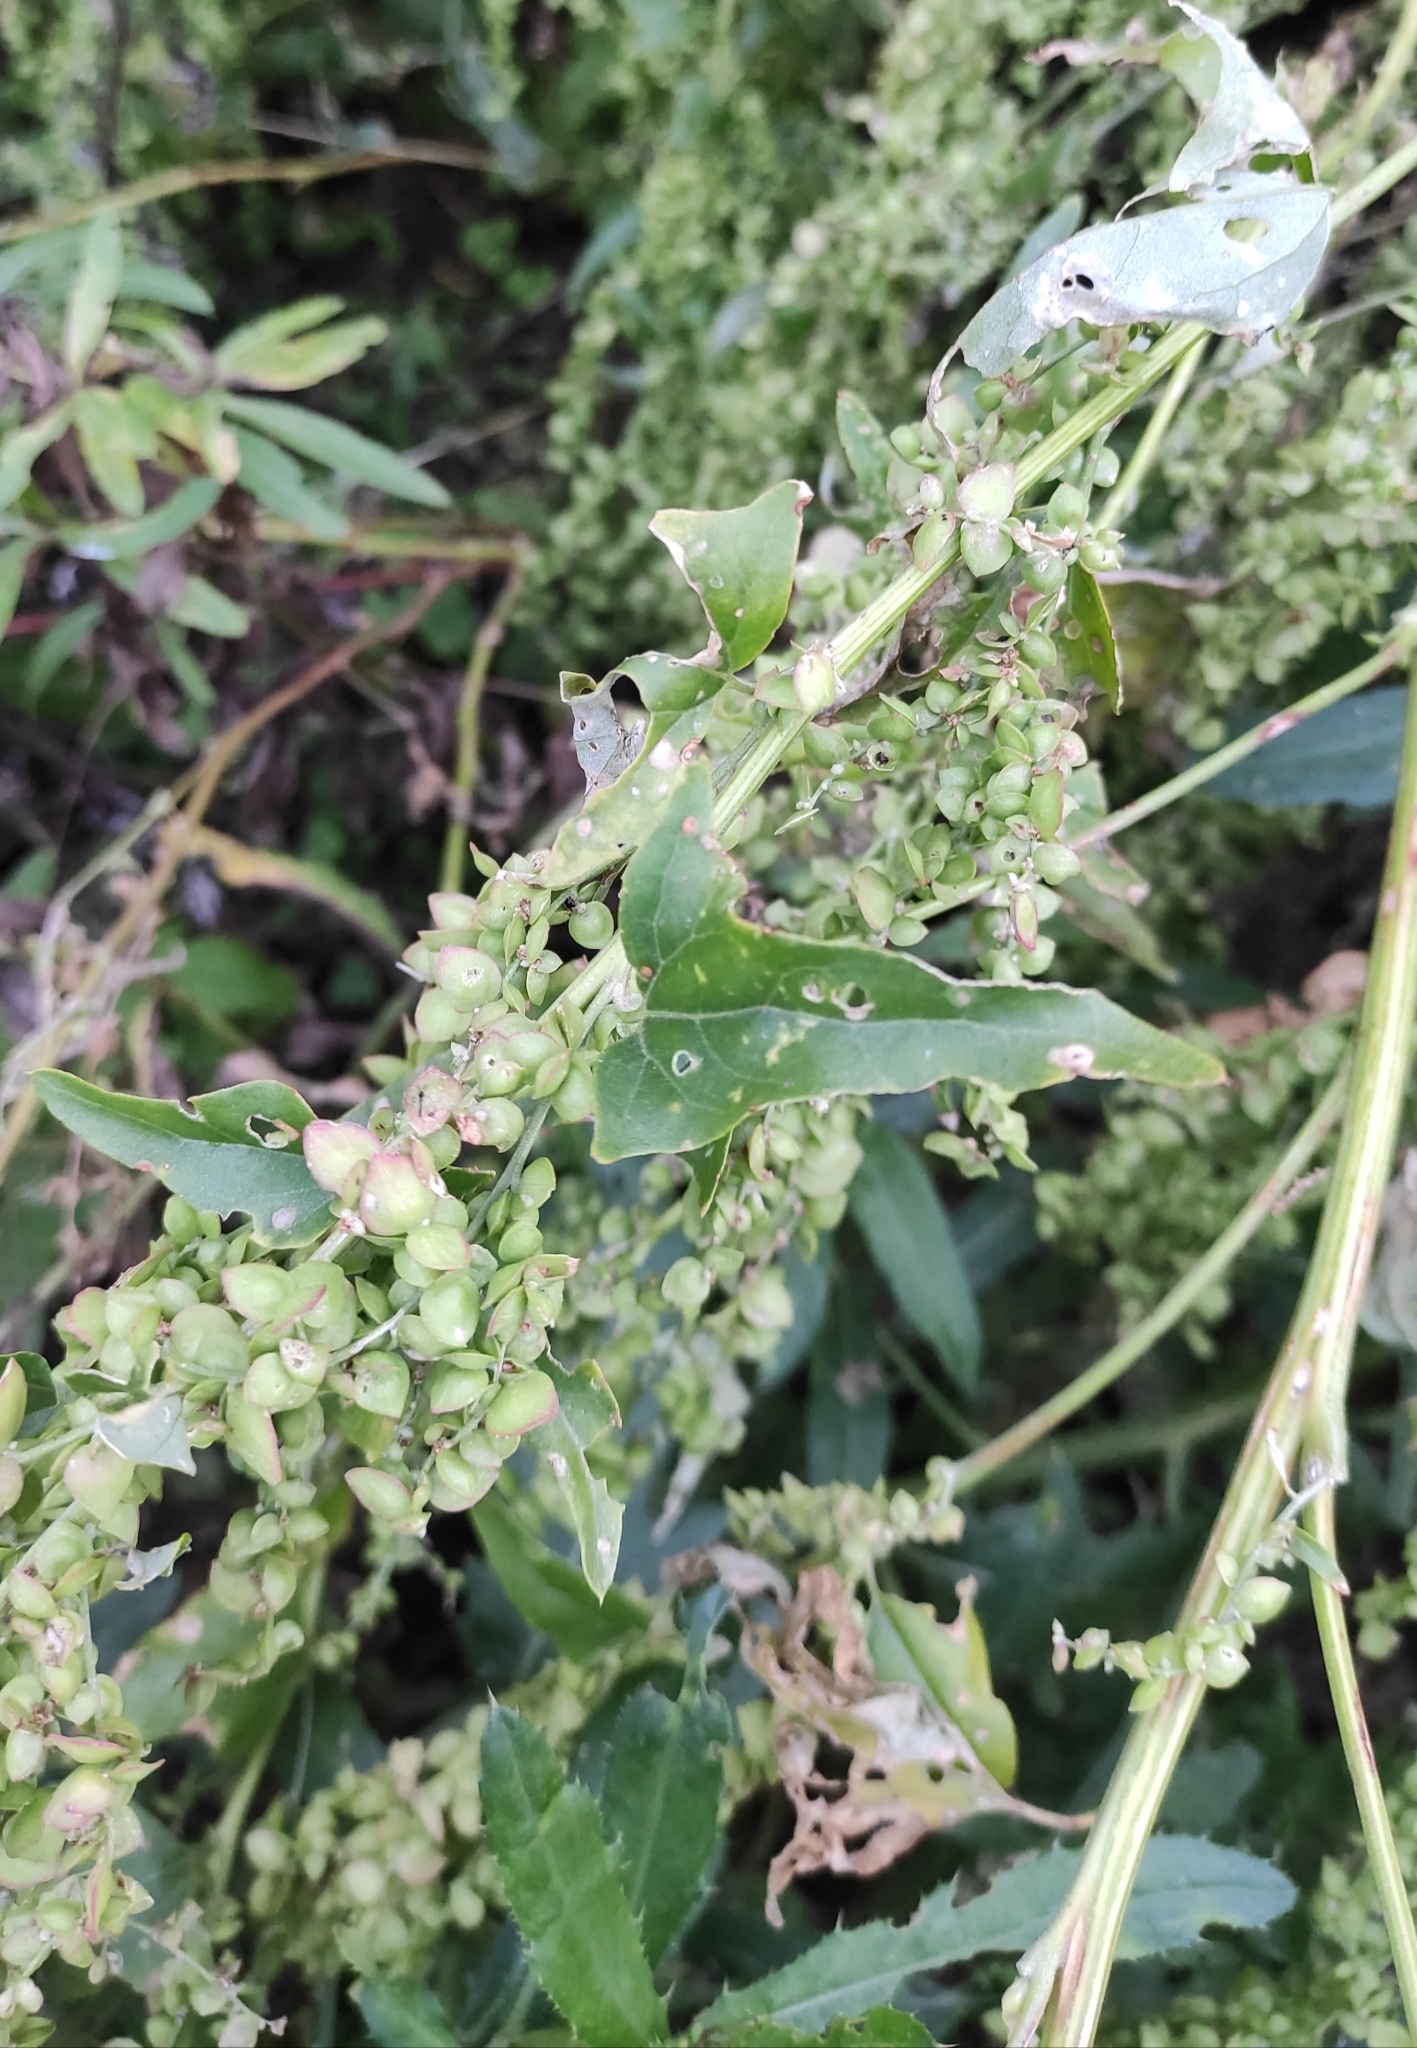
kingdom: Plantae
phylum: Tracheophyta
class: Magnoliopsida
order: Caryophyllales
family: Amaranthaceae
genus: Atriplex
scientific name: Atriplex sagittata
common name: Purple orache
